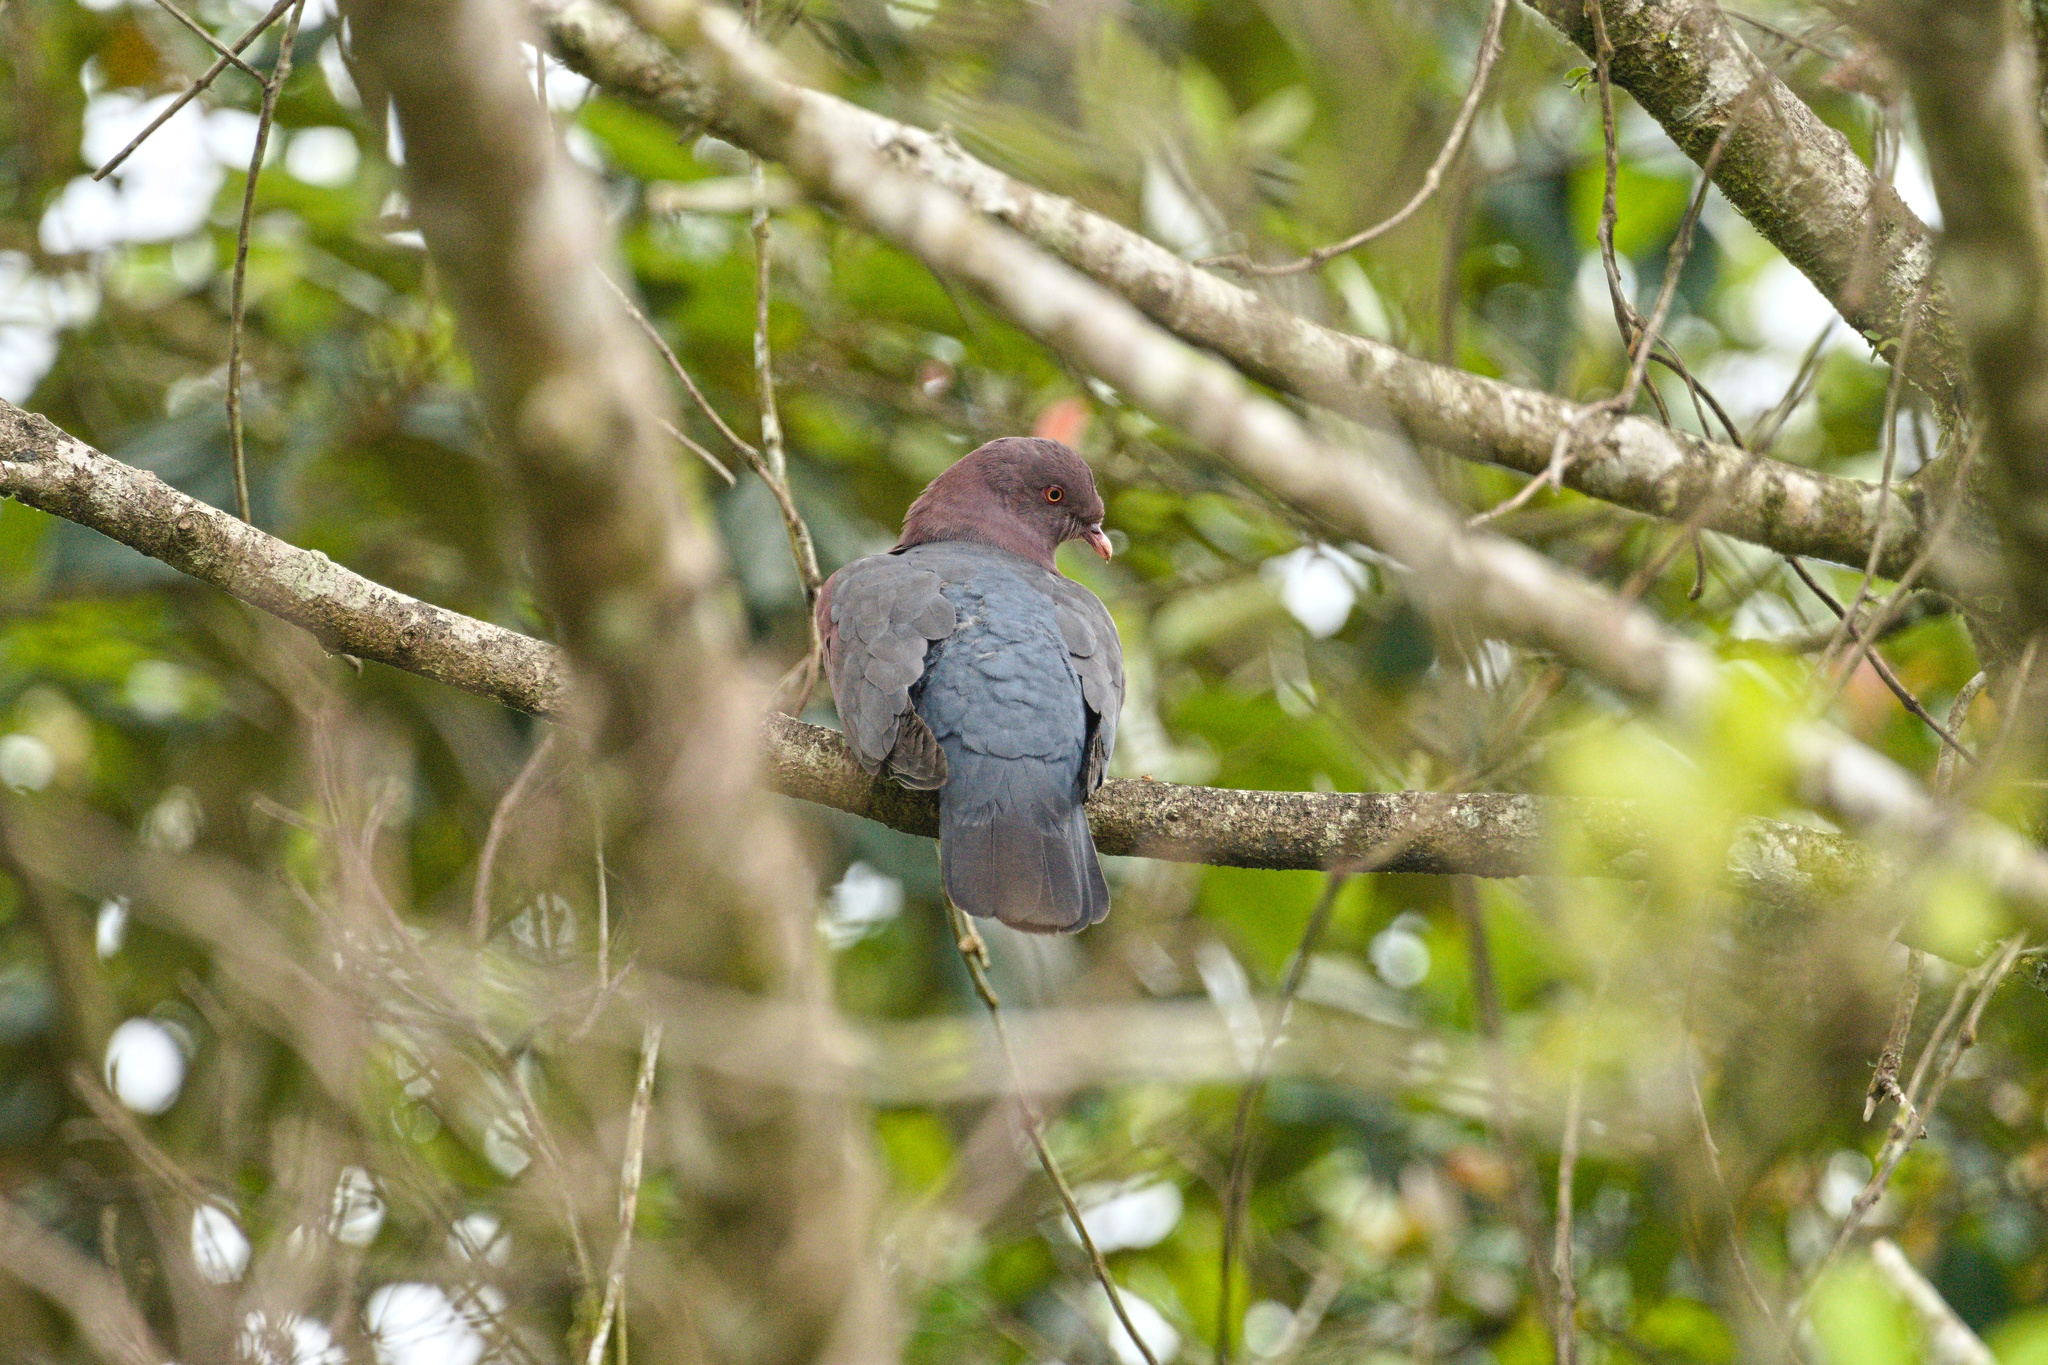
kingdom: Animalia
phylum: Chordata
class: Aves
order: Columbiformes
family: Columbidae
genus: Patagioenas
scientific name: Patagioenas flavirostris
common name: Red-billed pigeon
